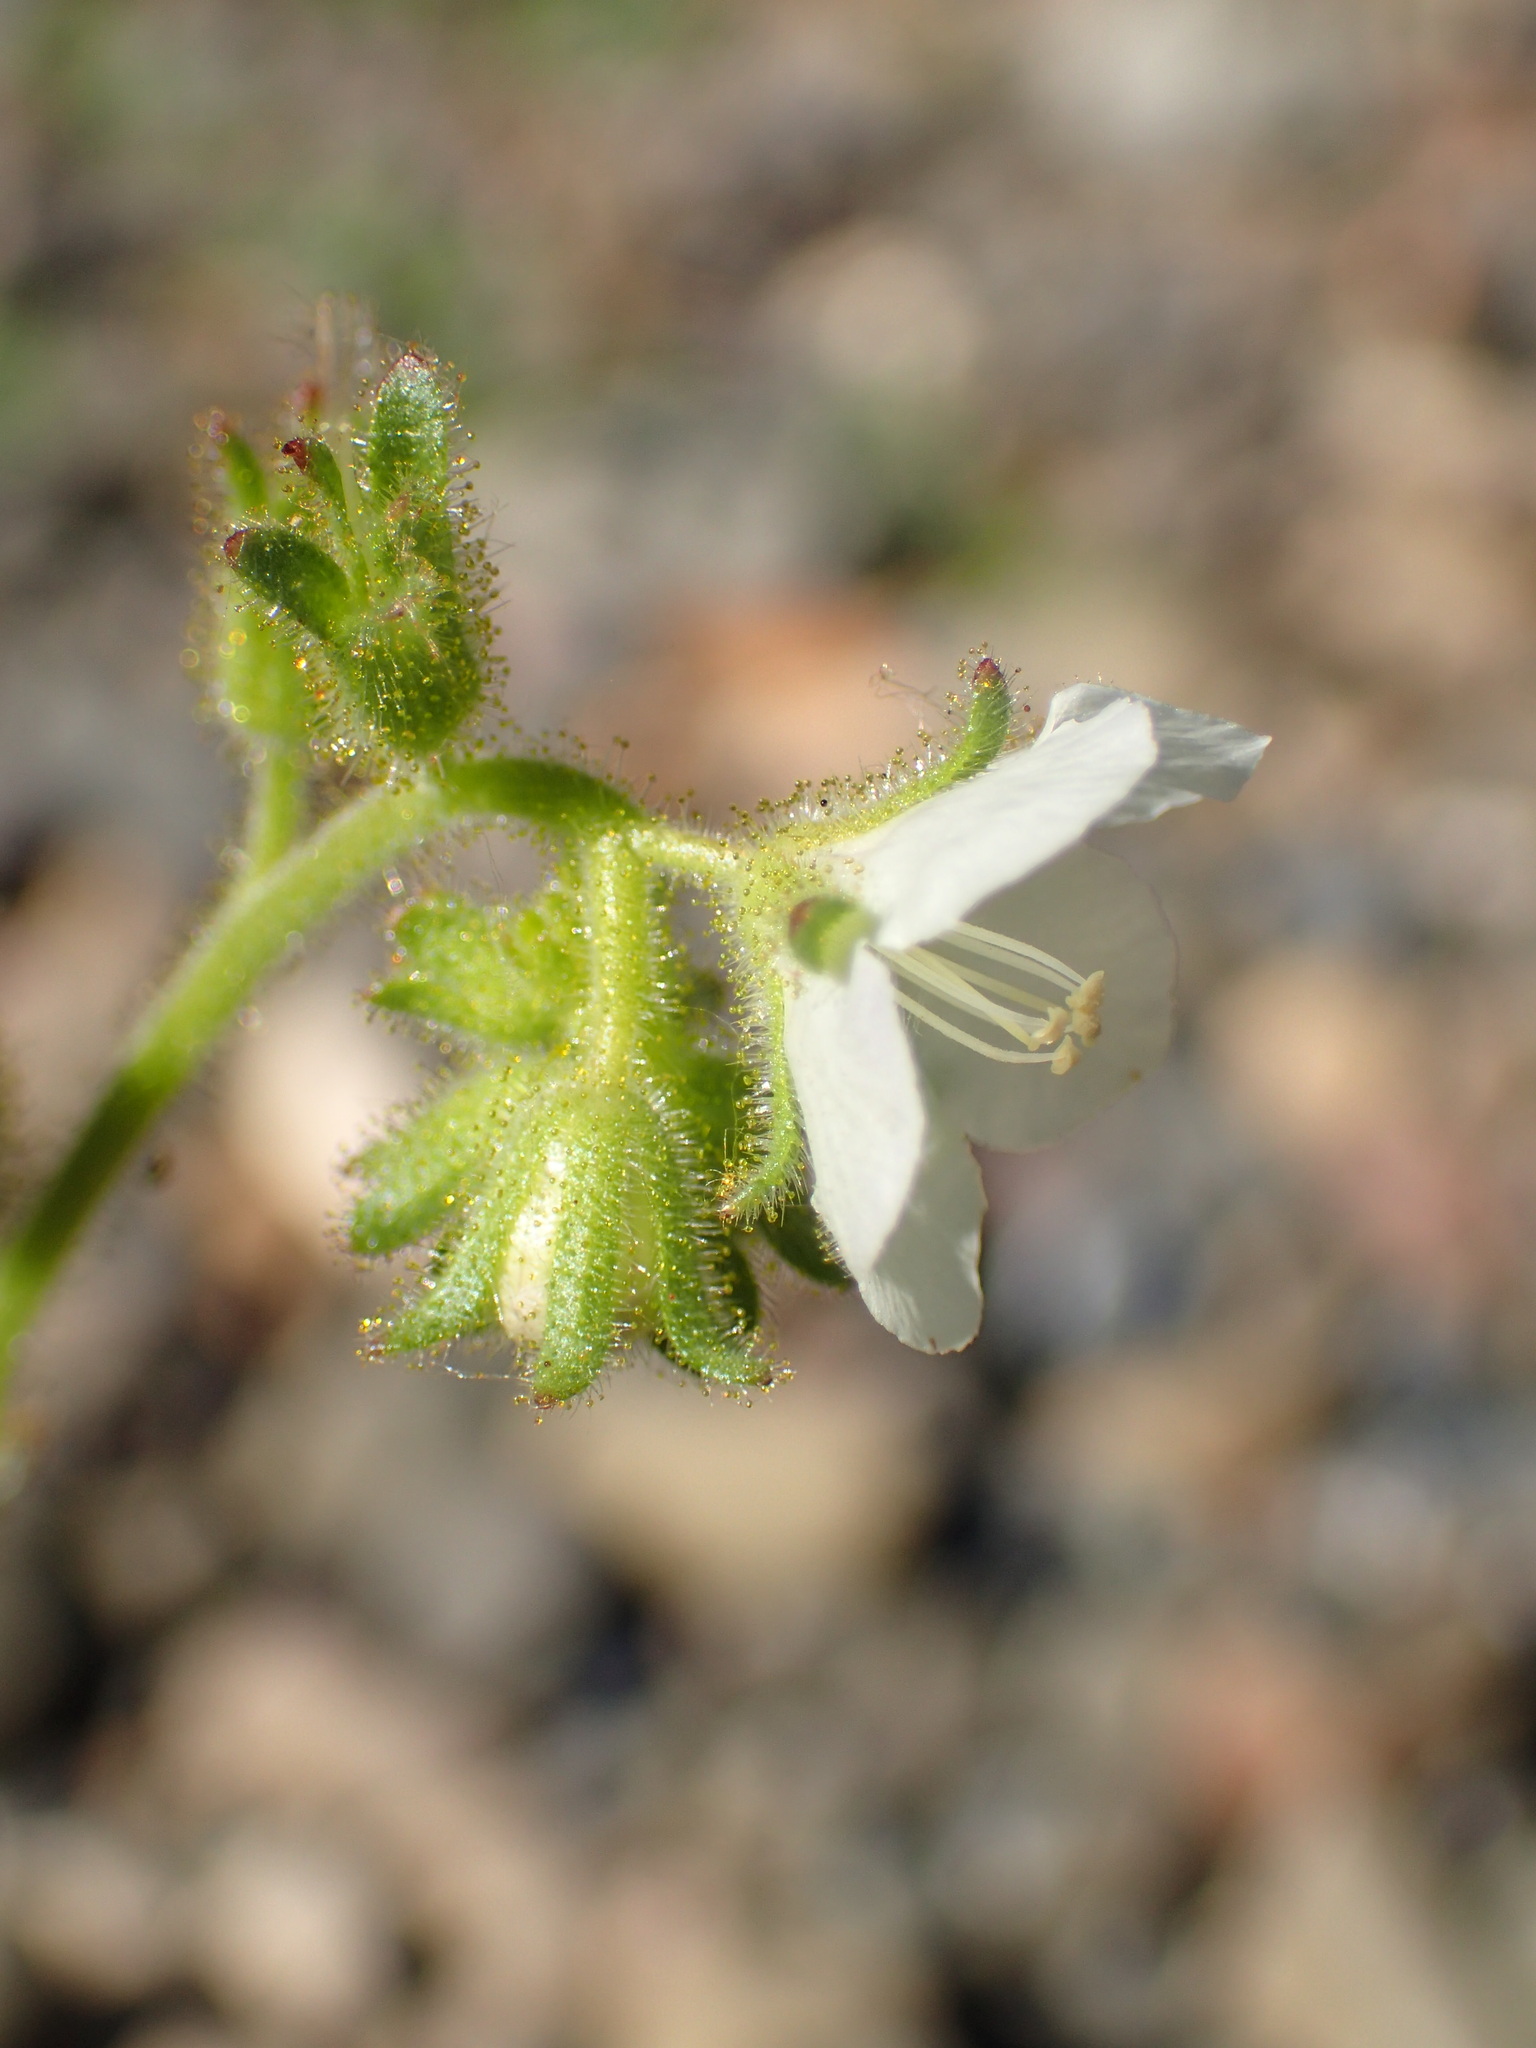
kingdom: Plantae
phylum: Tracheophyta
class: Magnoliopsida
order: Boraginales
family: Hydrophyllaceae
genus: Phacelia
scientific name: Phacelia viscida
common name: Sticky phacelia
